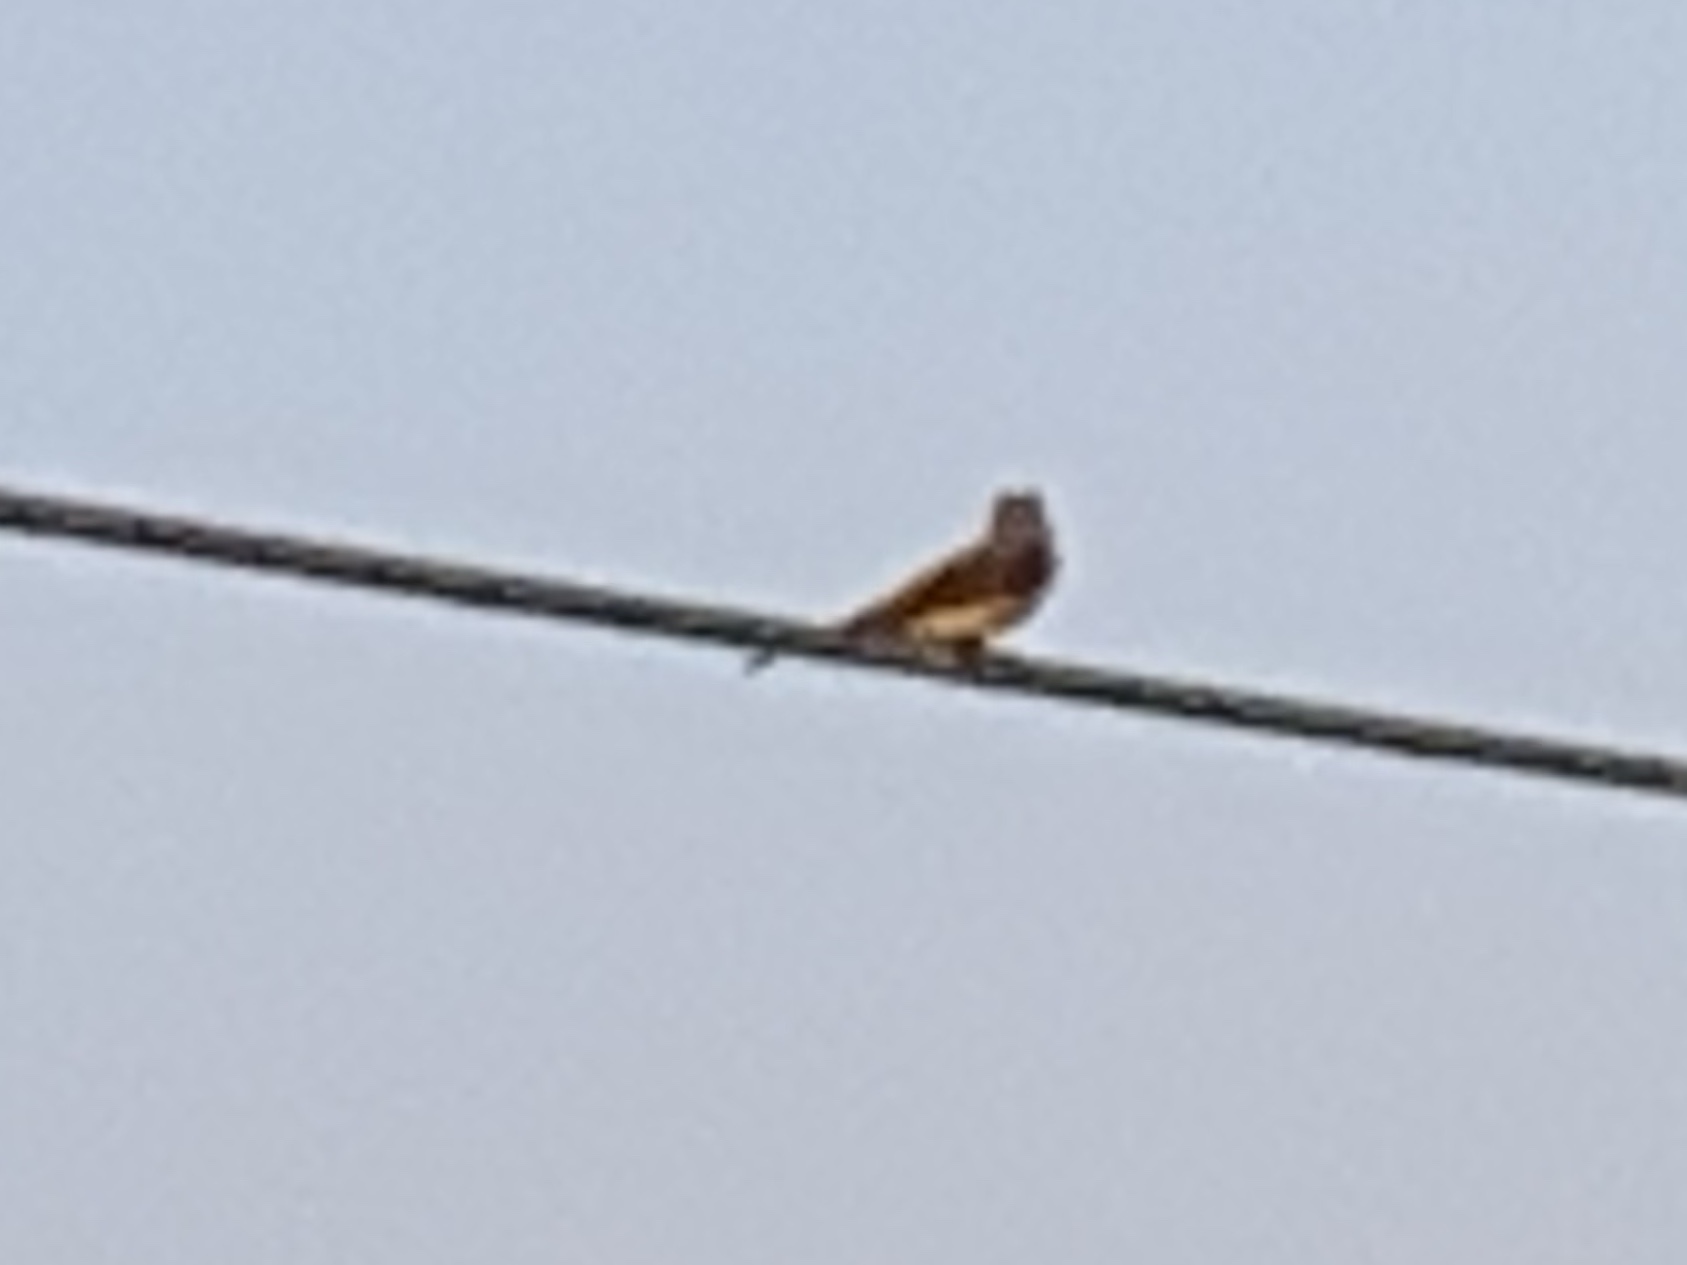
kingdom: Animalia
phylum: Chordata
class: Aves
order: Passeriformes
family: Tyrannidae
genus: Tyrannus
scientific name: Tyrannus verticalis
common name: Western kingbird
